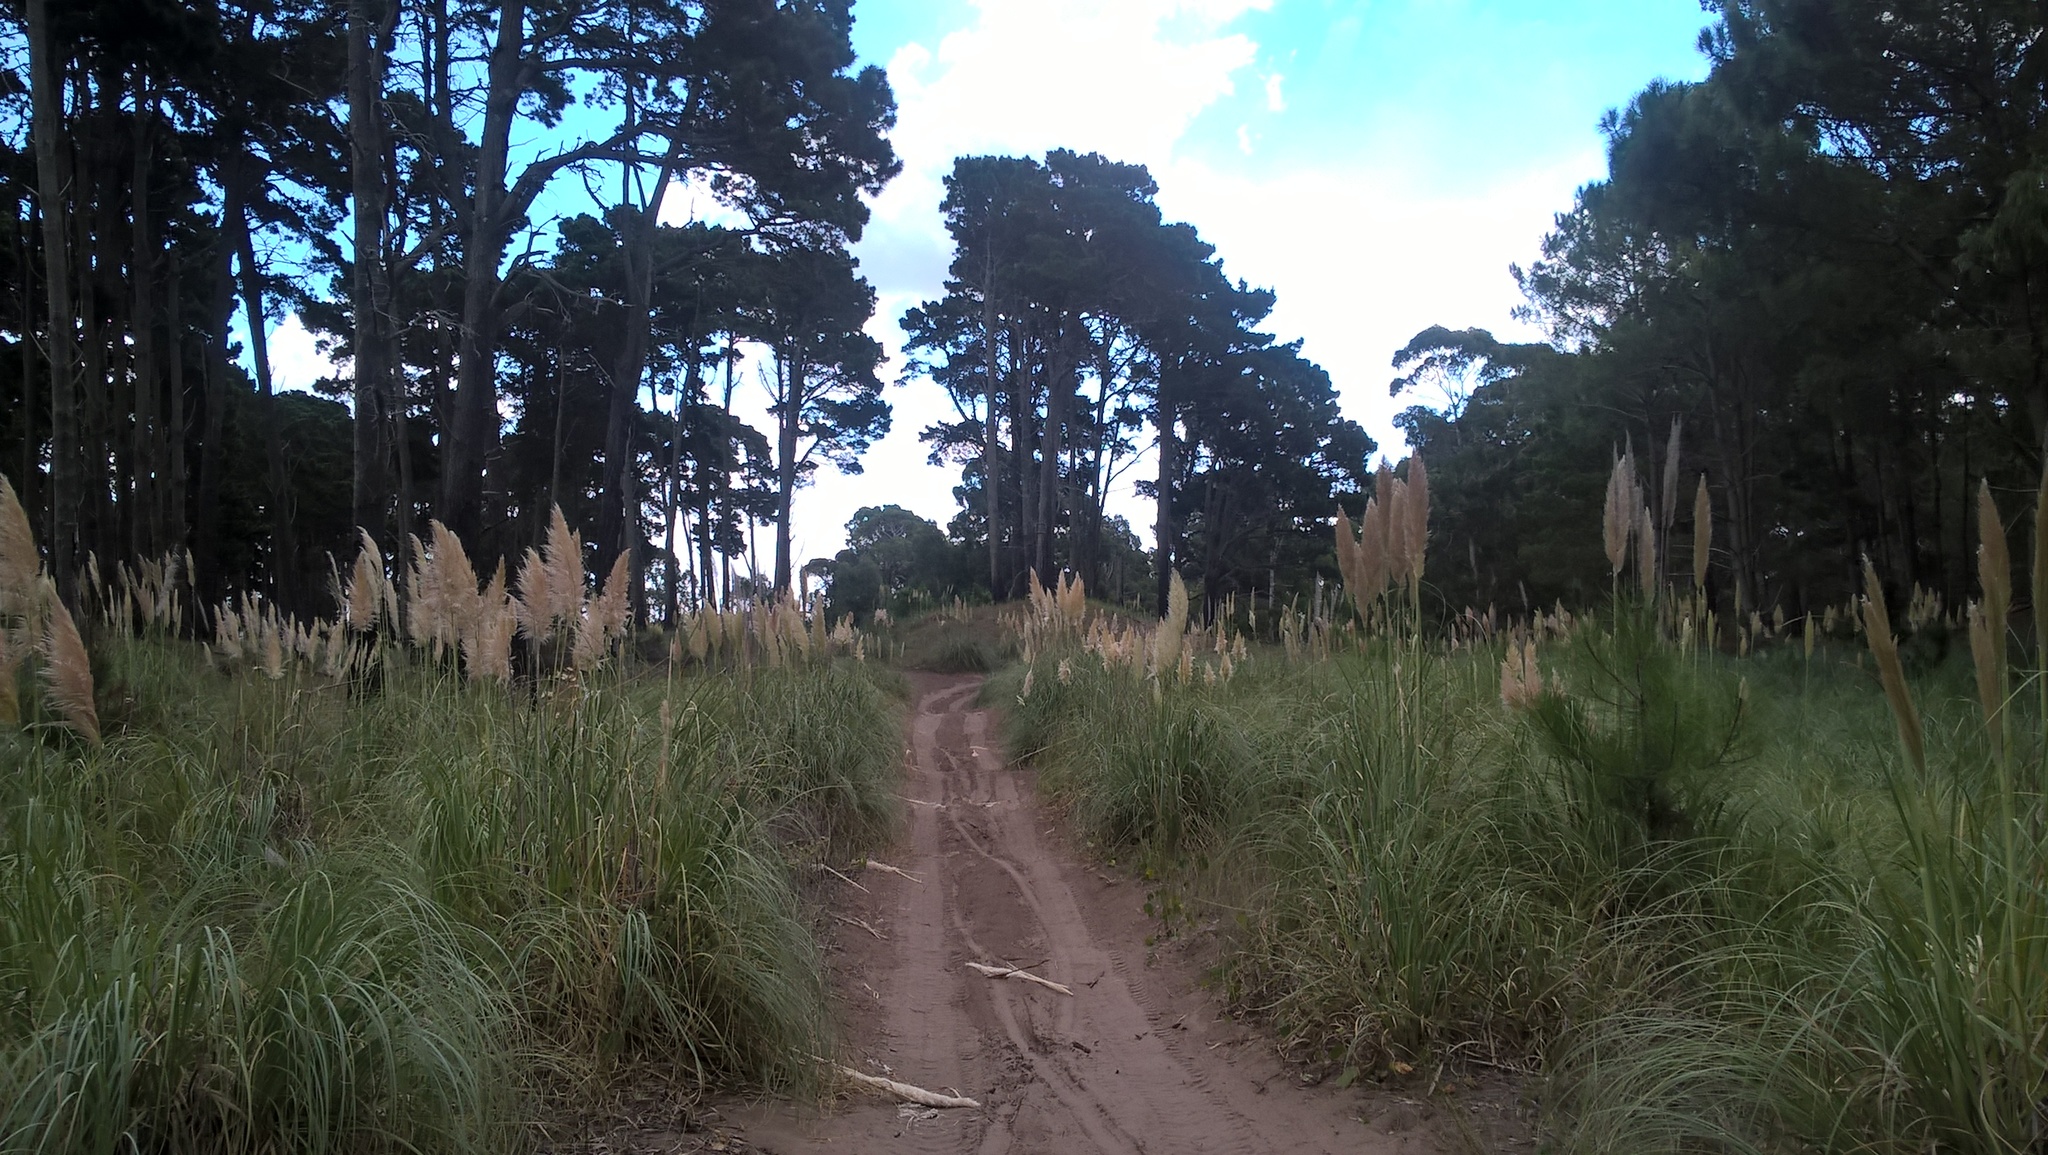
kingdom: Plantae
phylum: Tracheophyta
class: Liliopsida
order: Poales
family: Poaceae
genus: Cortaderia
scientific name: Cortaderia selloana
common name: Uruguayan pampas grass
